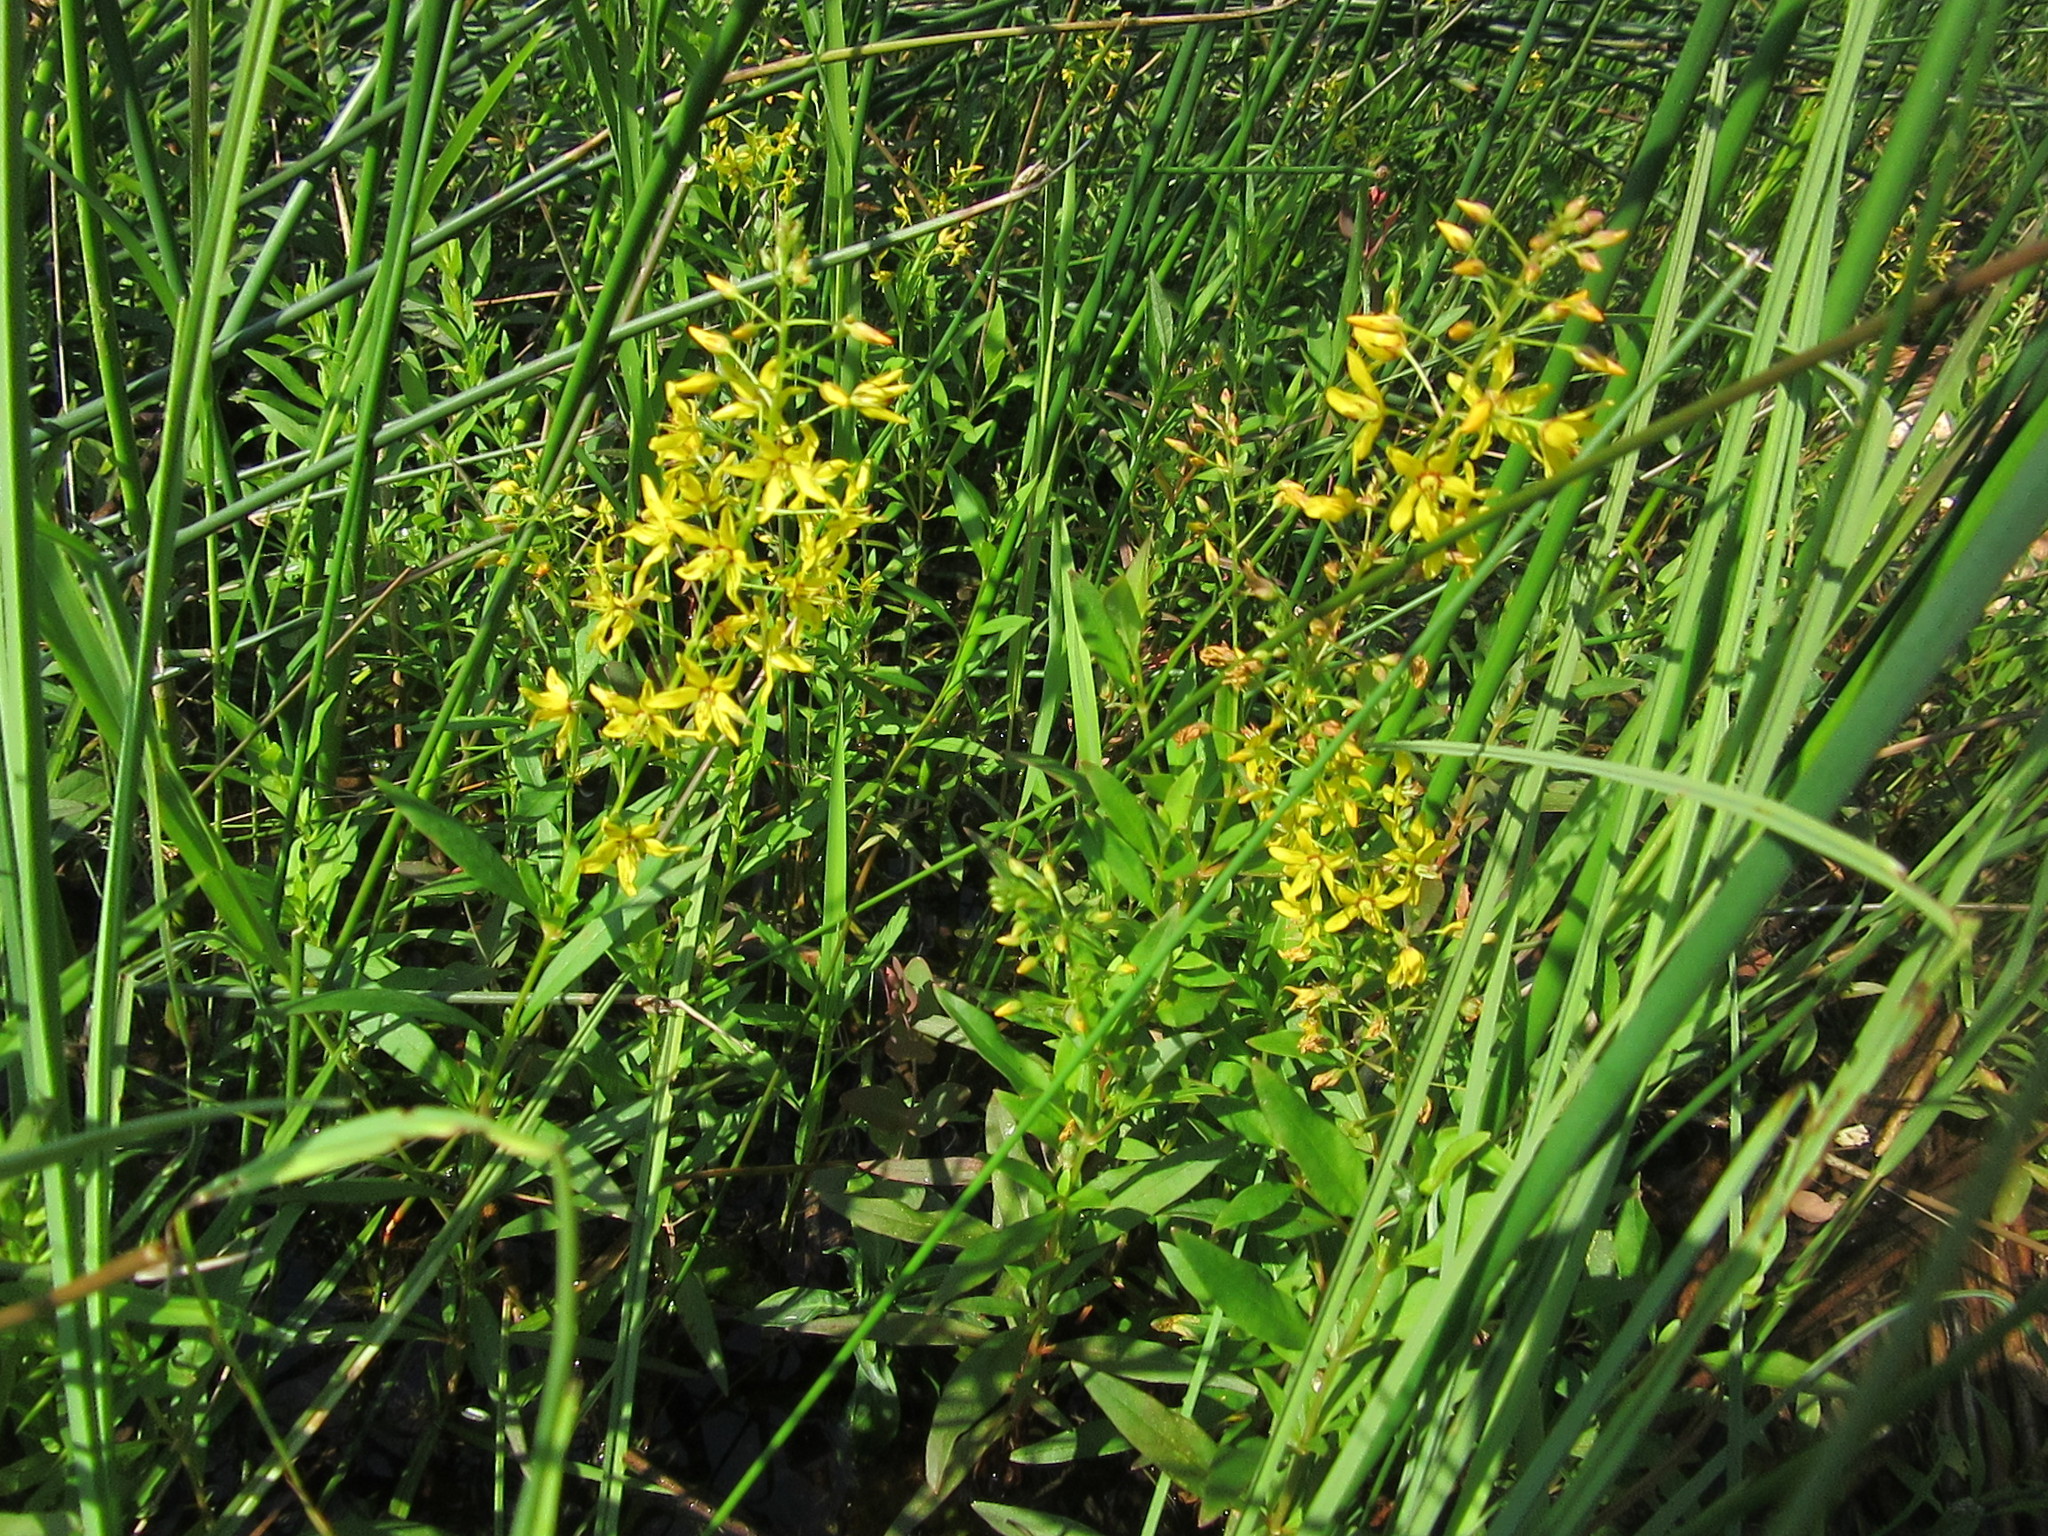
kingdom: Plantae
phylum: Tracheophyta
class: Magnoliopsida
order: Ericales
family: Primulaceae
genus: Lysimachia
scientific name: Lysimachia terrestris
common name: Lake loosestrife
